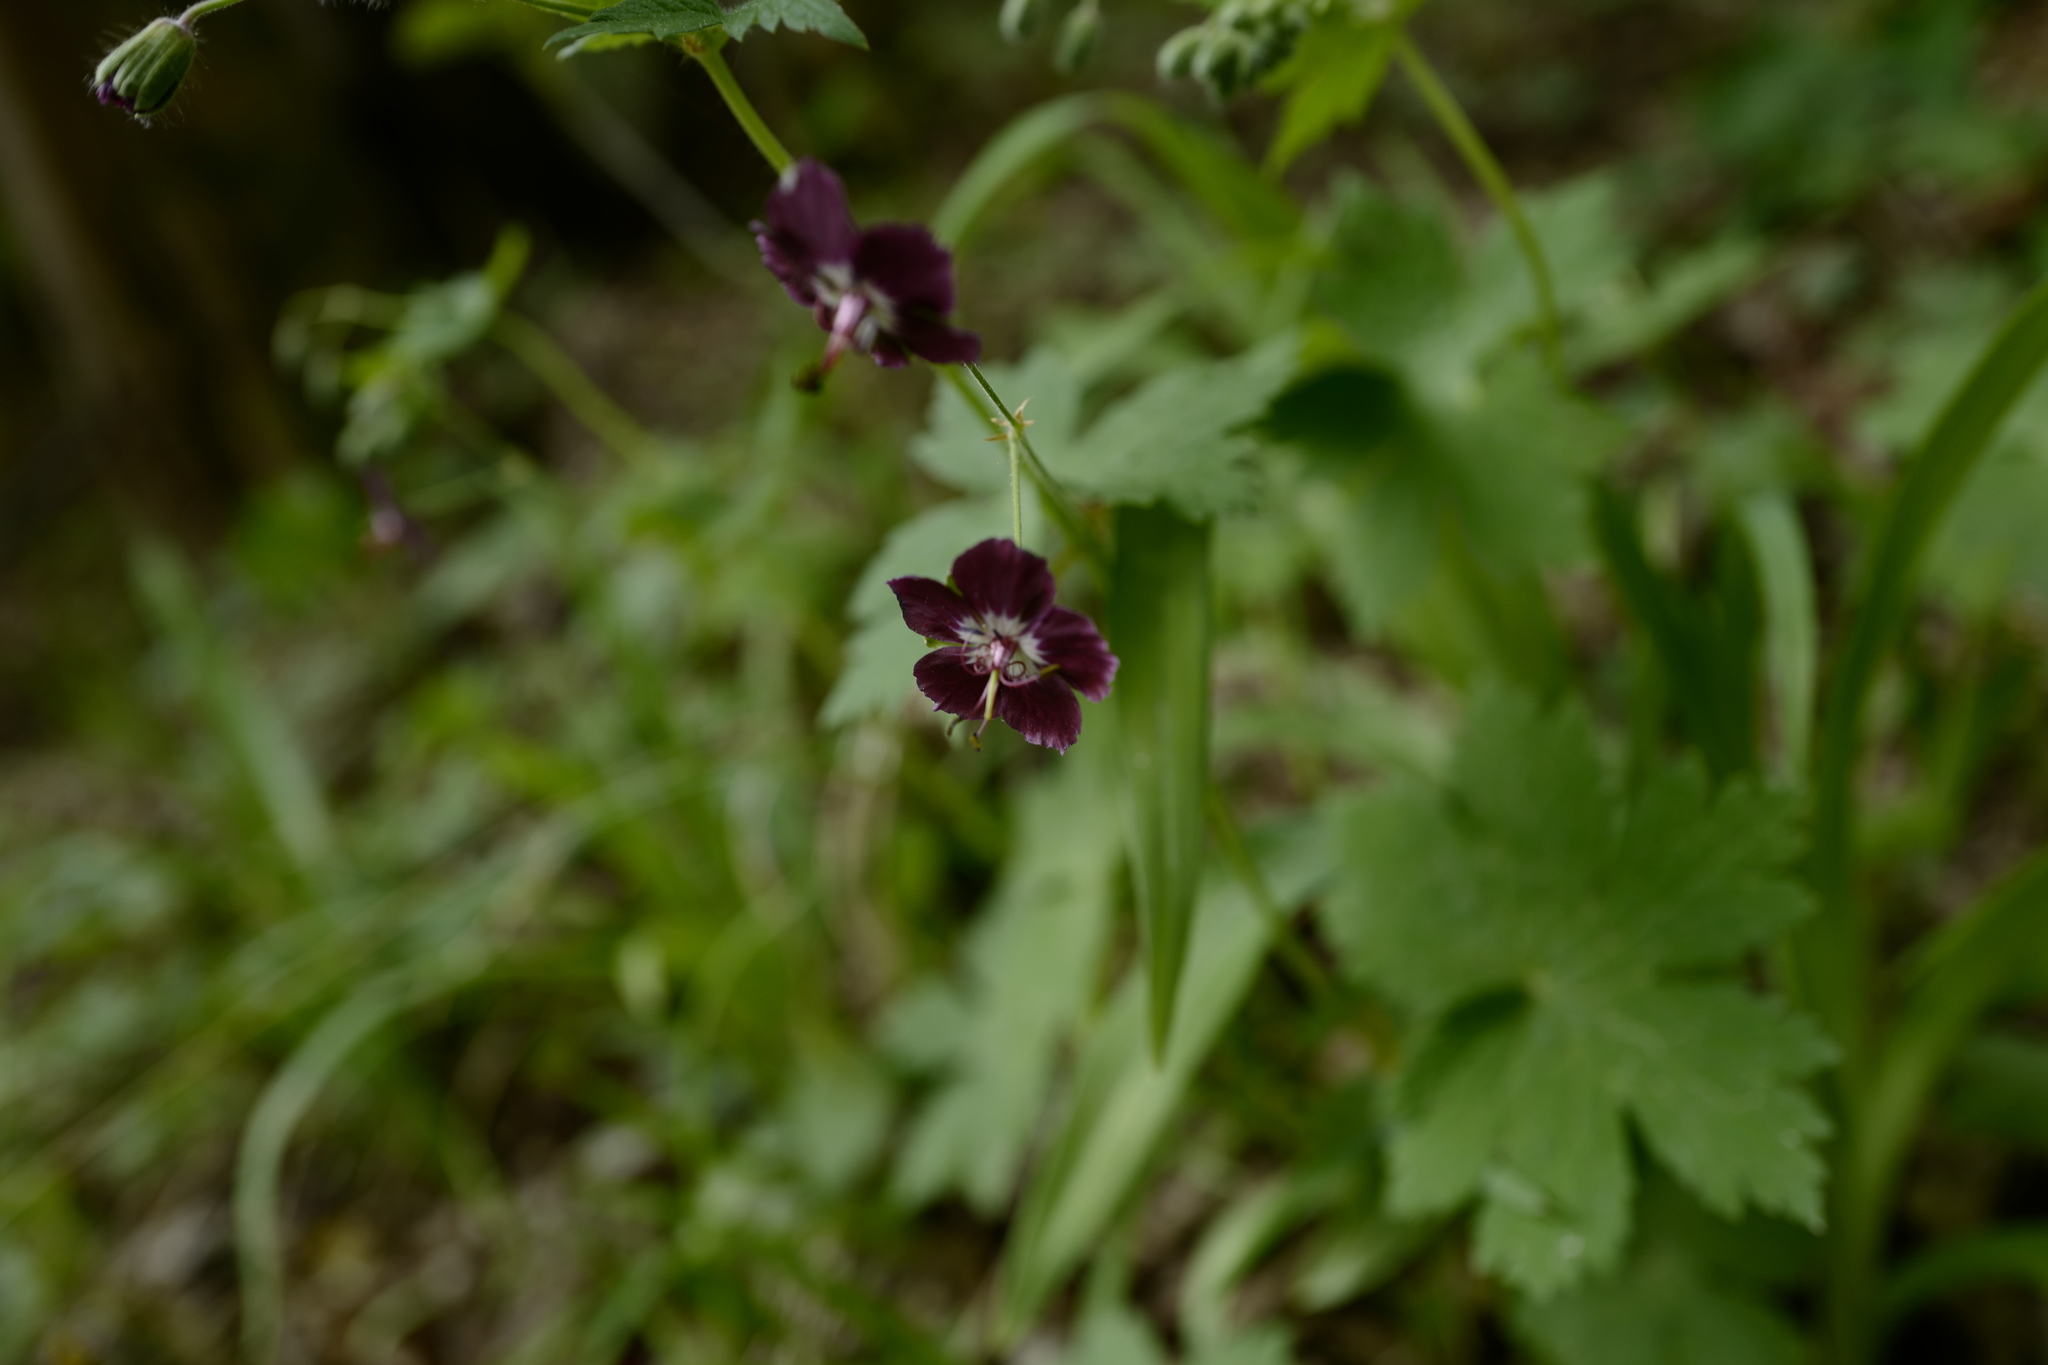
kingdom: Plantae
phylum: Tracheophyta
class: Magnoliopsida
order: Geraniales
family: Geraniaceae
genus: Geranium
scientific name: Geranium phaeum
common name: Dusky crane's-bill
